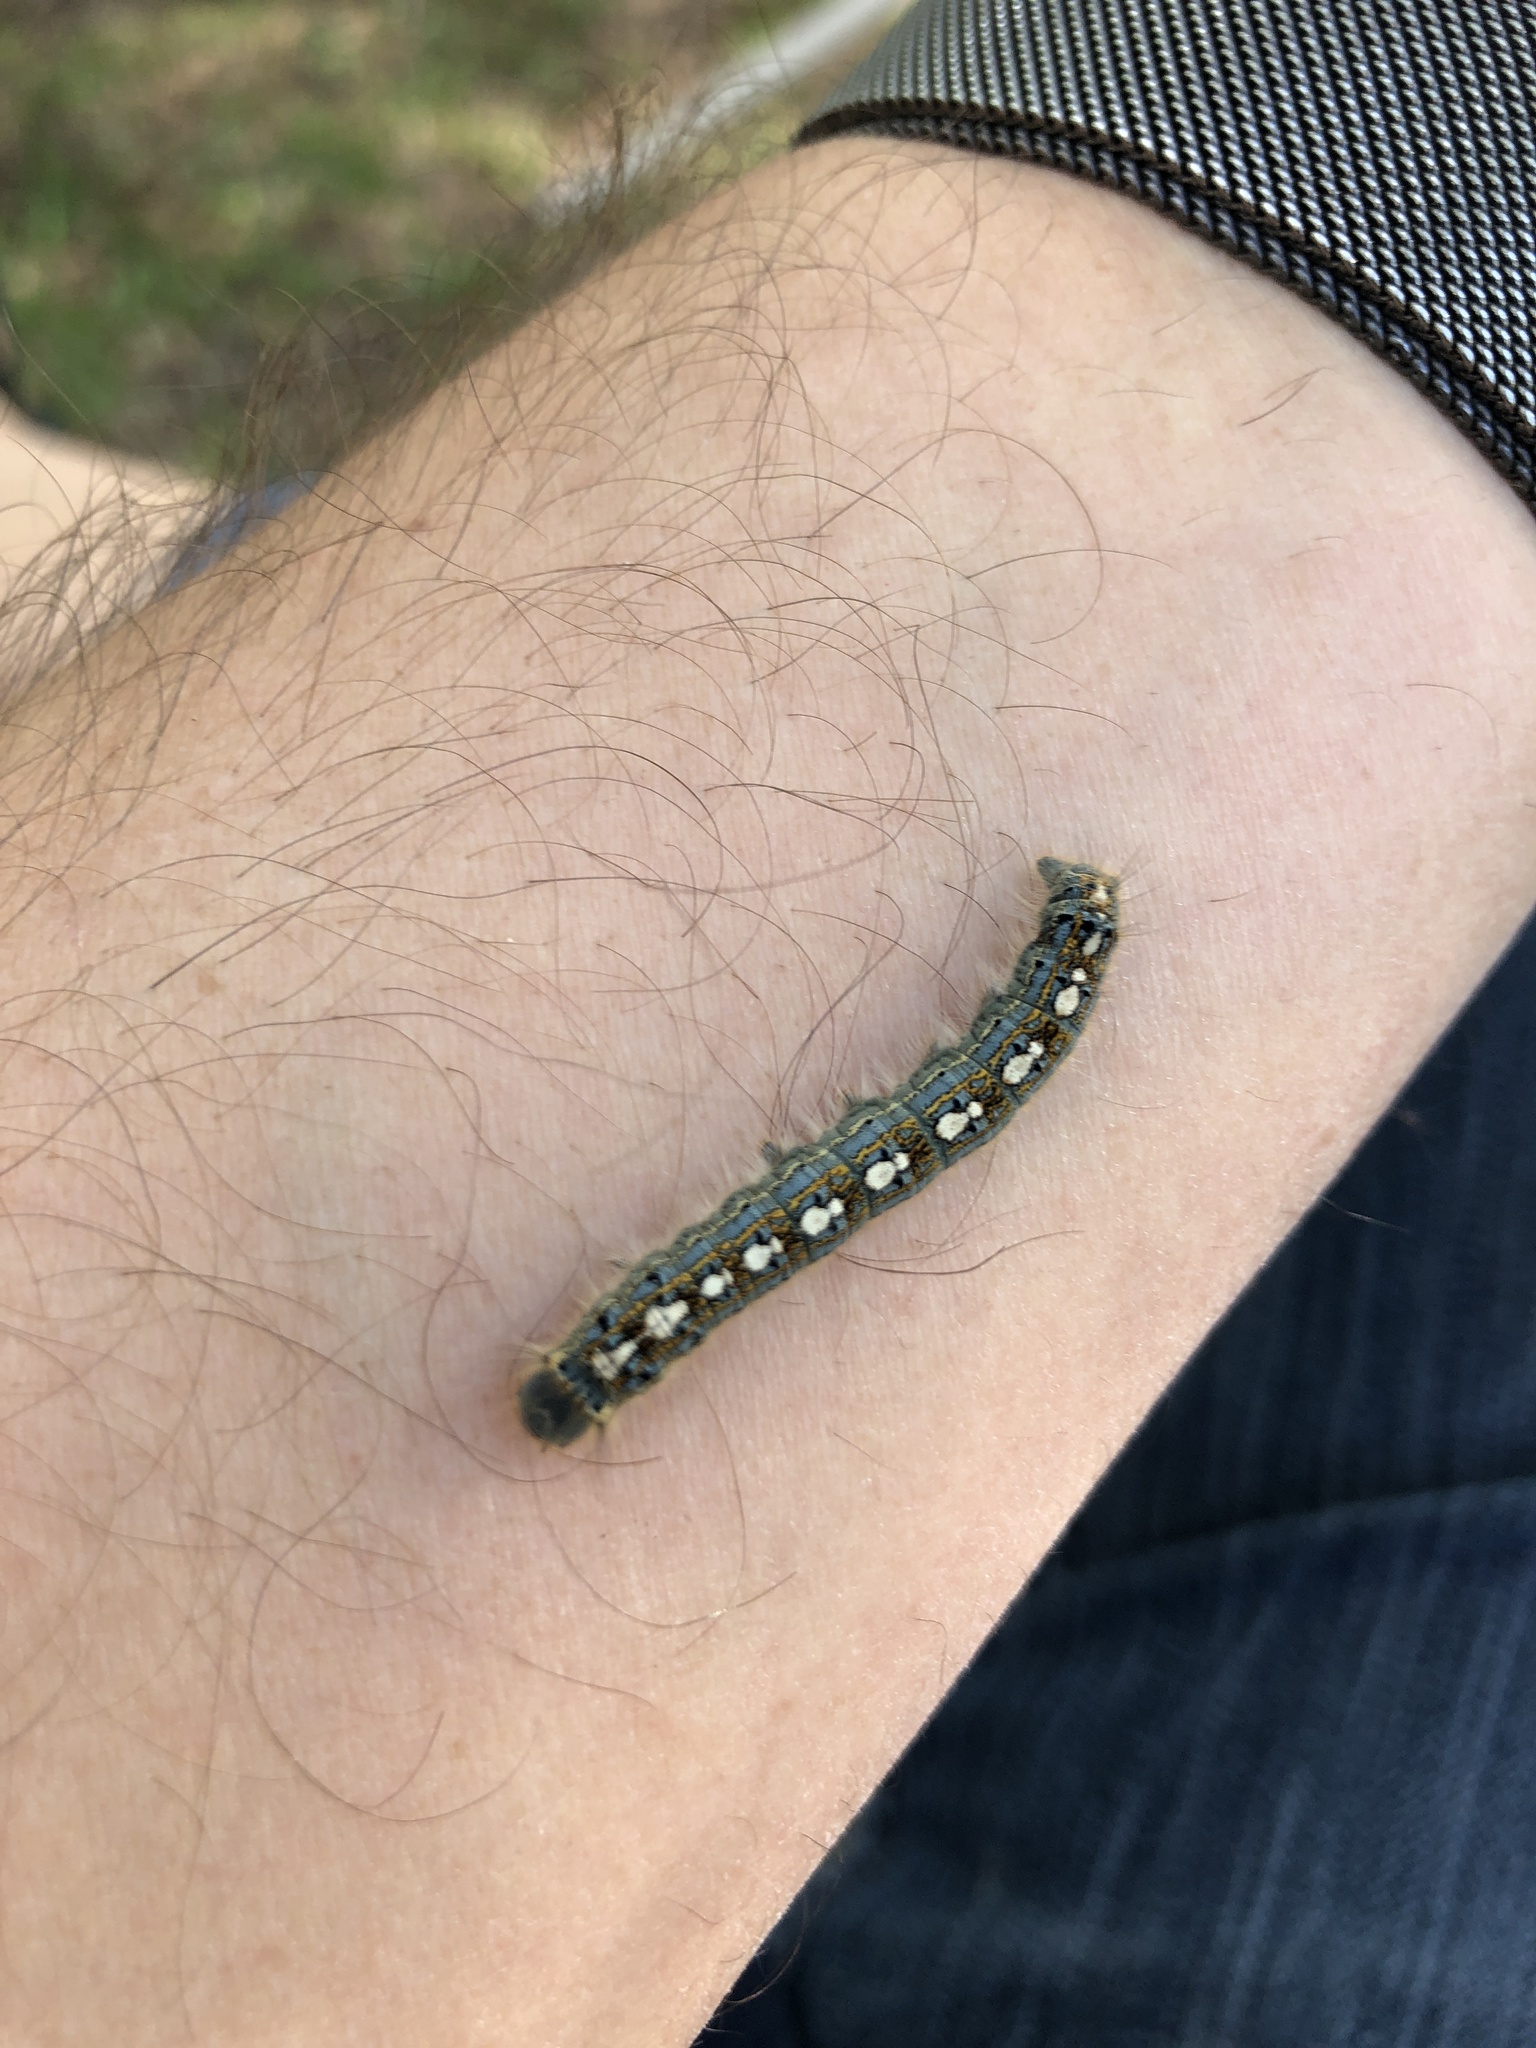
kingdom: Animalia
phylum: Arthropoda
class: Insecta
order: Lepidoptera
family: Lasiocampidae
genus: Malacosoma
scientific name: Malacosoma disstria
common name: Forest tent caterpillar
